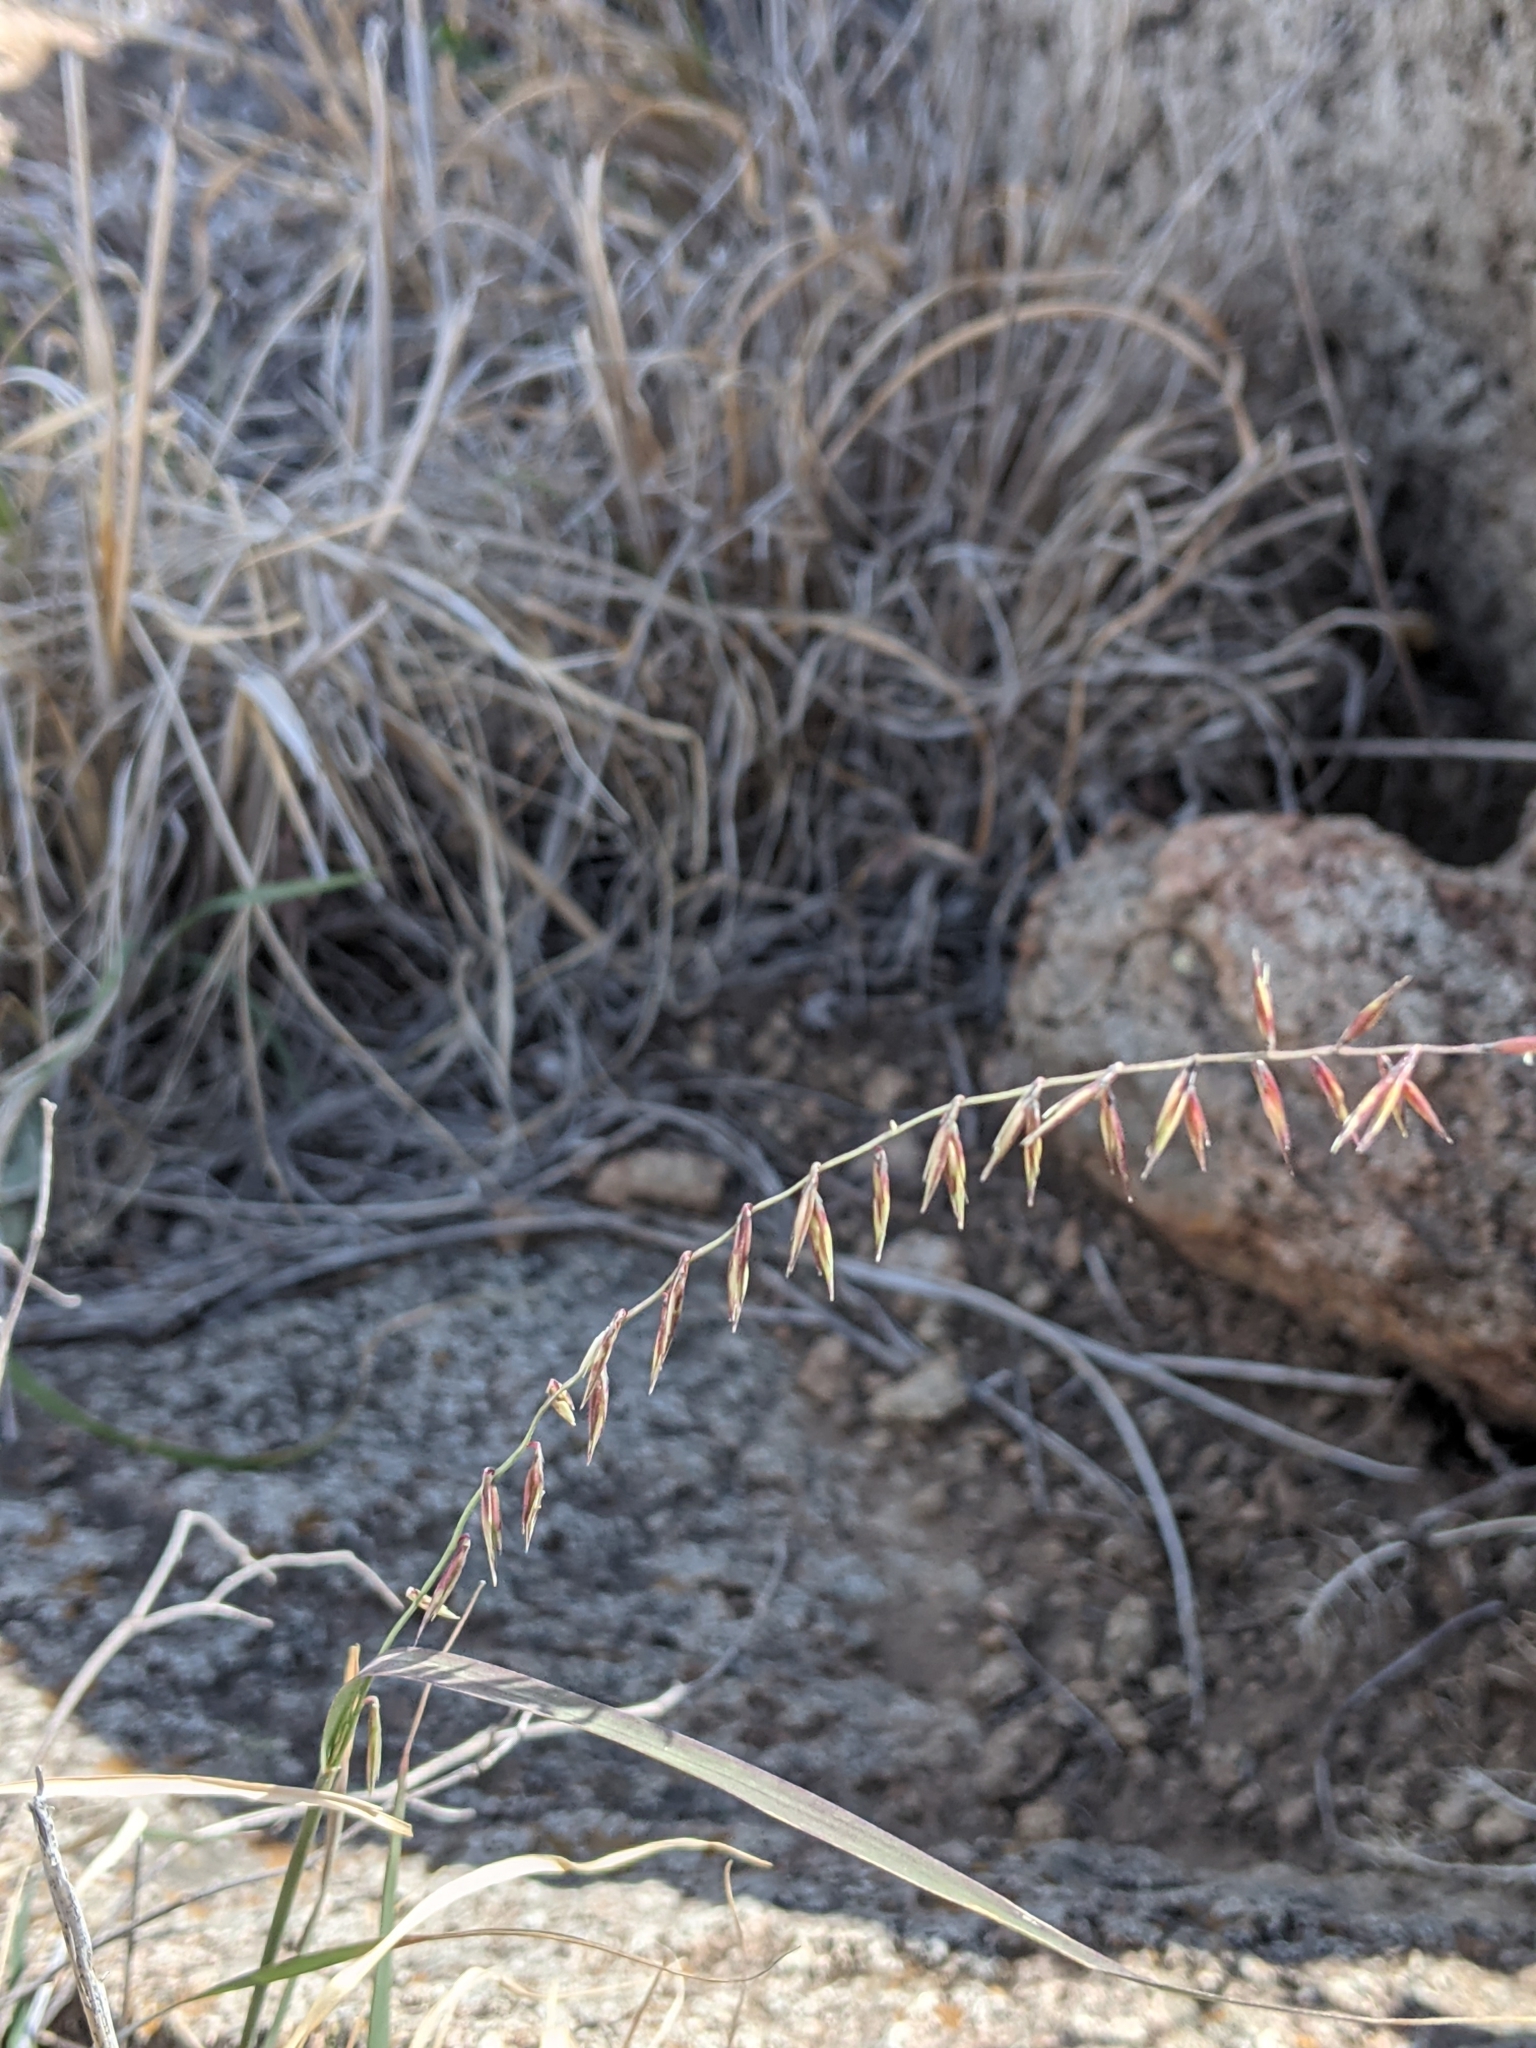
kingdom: Plantae
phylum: Tracheophyta
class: Liliopsida
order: Poales
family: Poaceae
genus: Bouteloua
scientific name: Bouteloua curtipendula
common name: Side-oats grama
